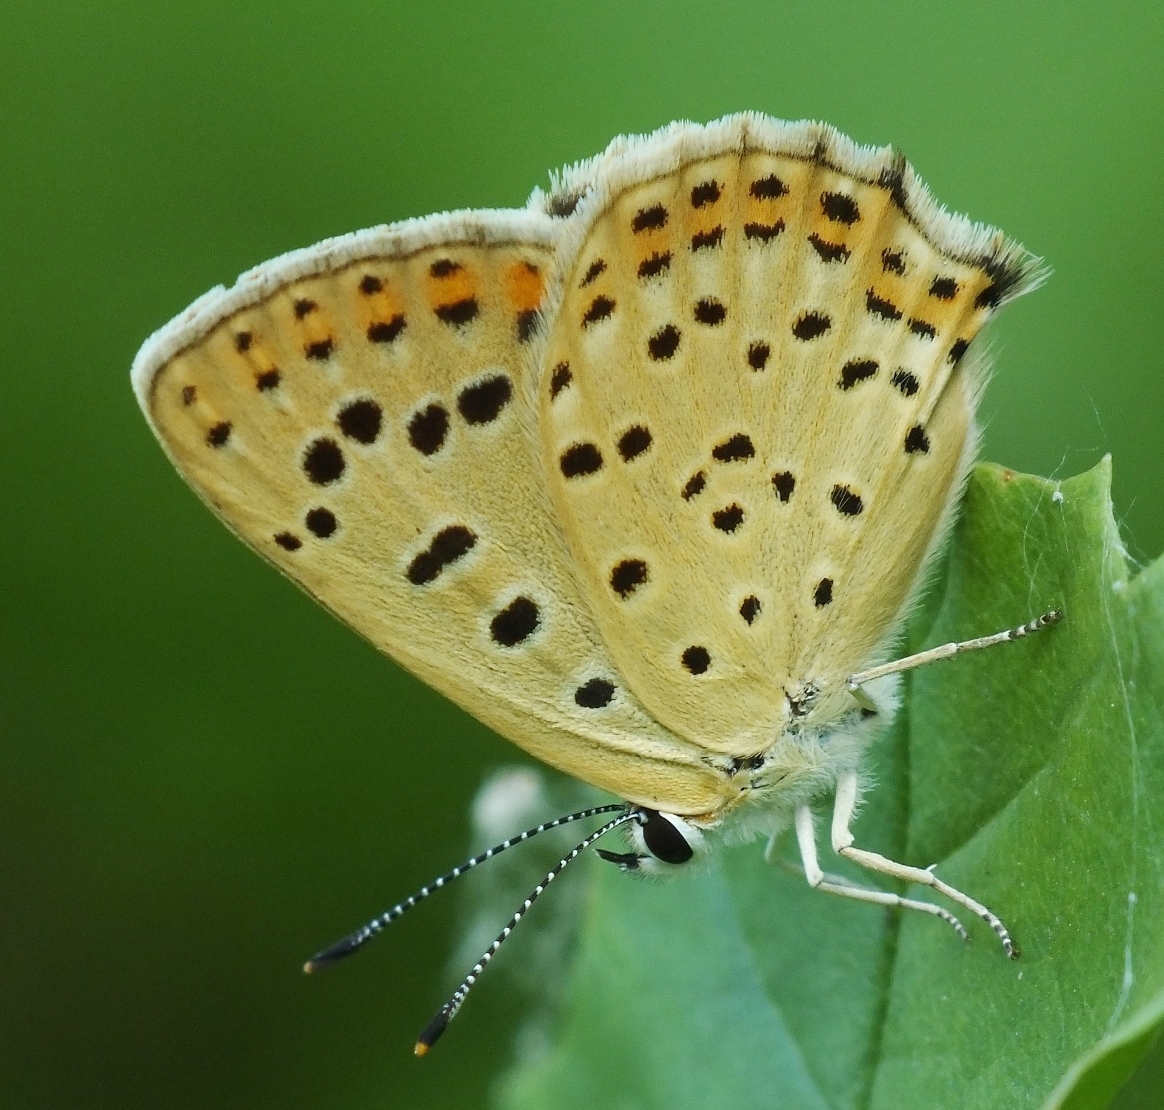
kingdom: Animalia
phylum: Arthropoda
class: Insecta
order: Lepidoptera
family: Lycaenidae
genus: Loweia
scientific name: Loweia tityrus
